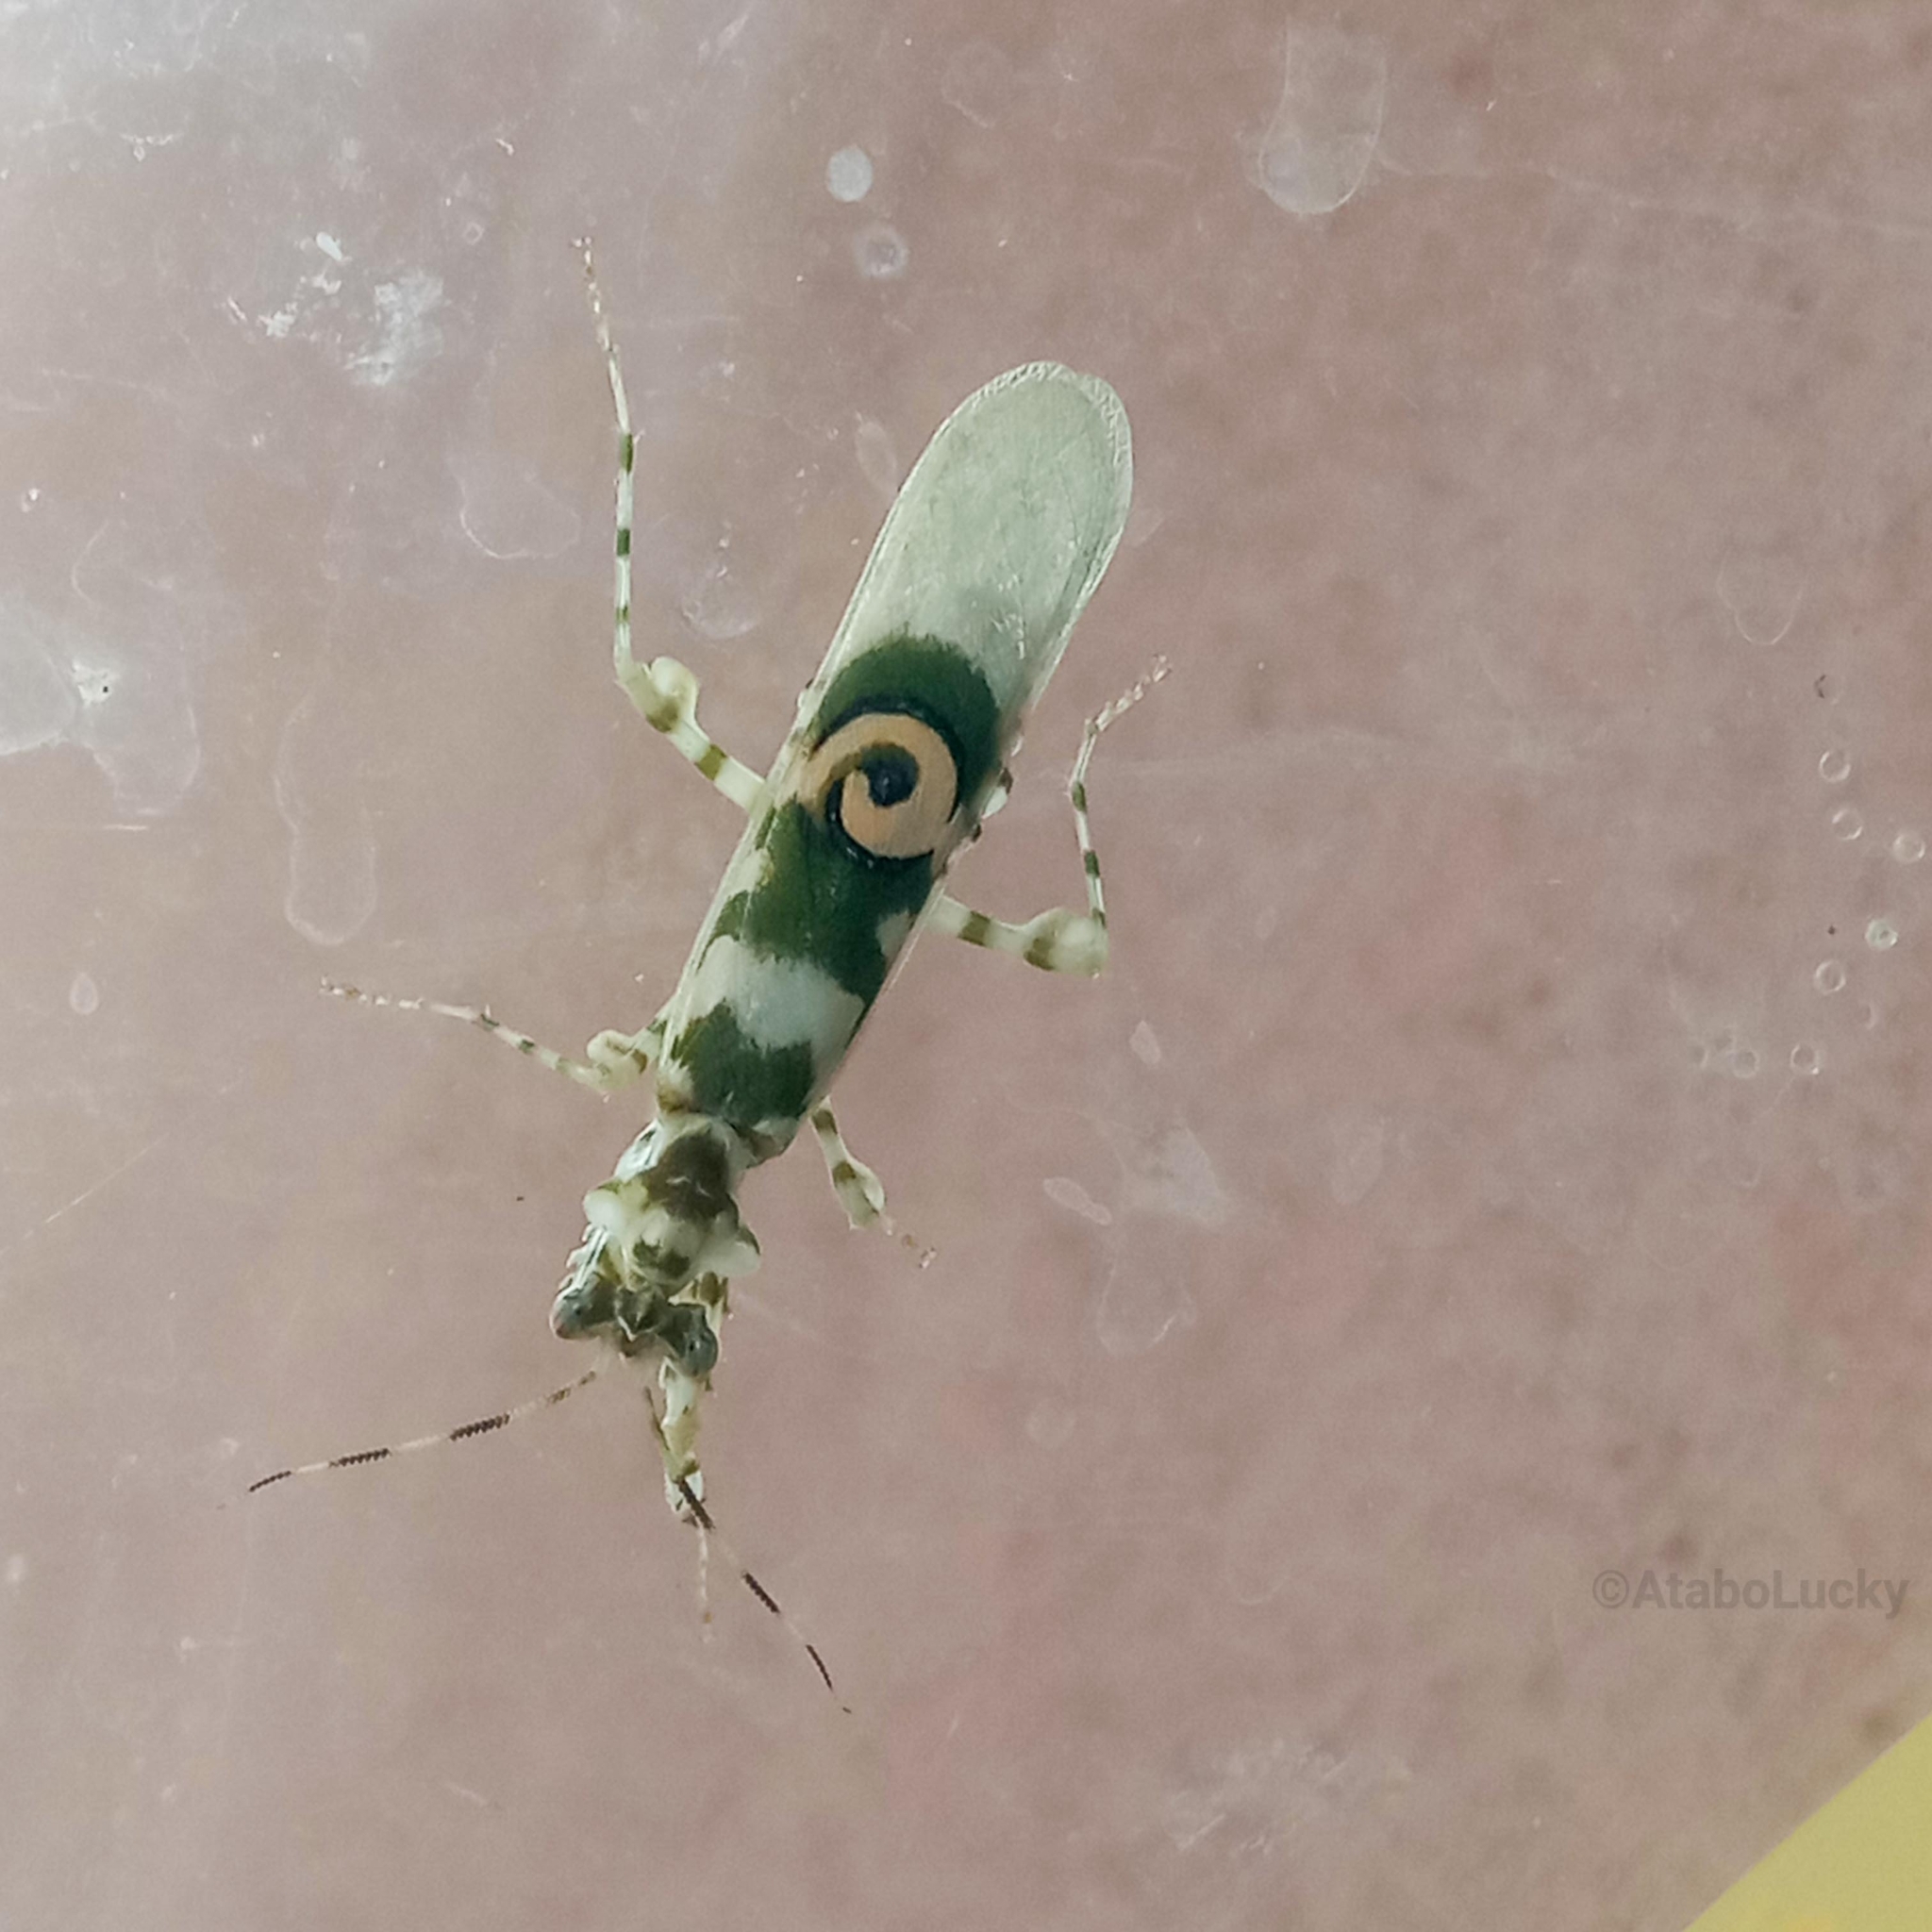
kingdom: Animalia
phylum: Arthropoda
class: Insecta
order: Mantodea
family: Hymenopodidae
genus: Pseudocreobotra
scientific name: Pseudocreobotra ocellata
